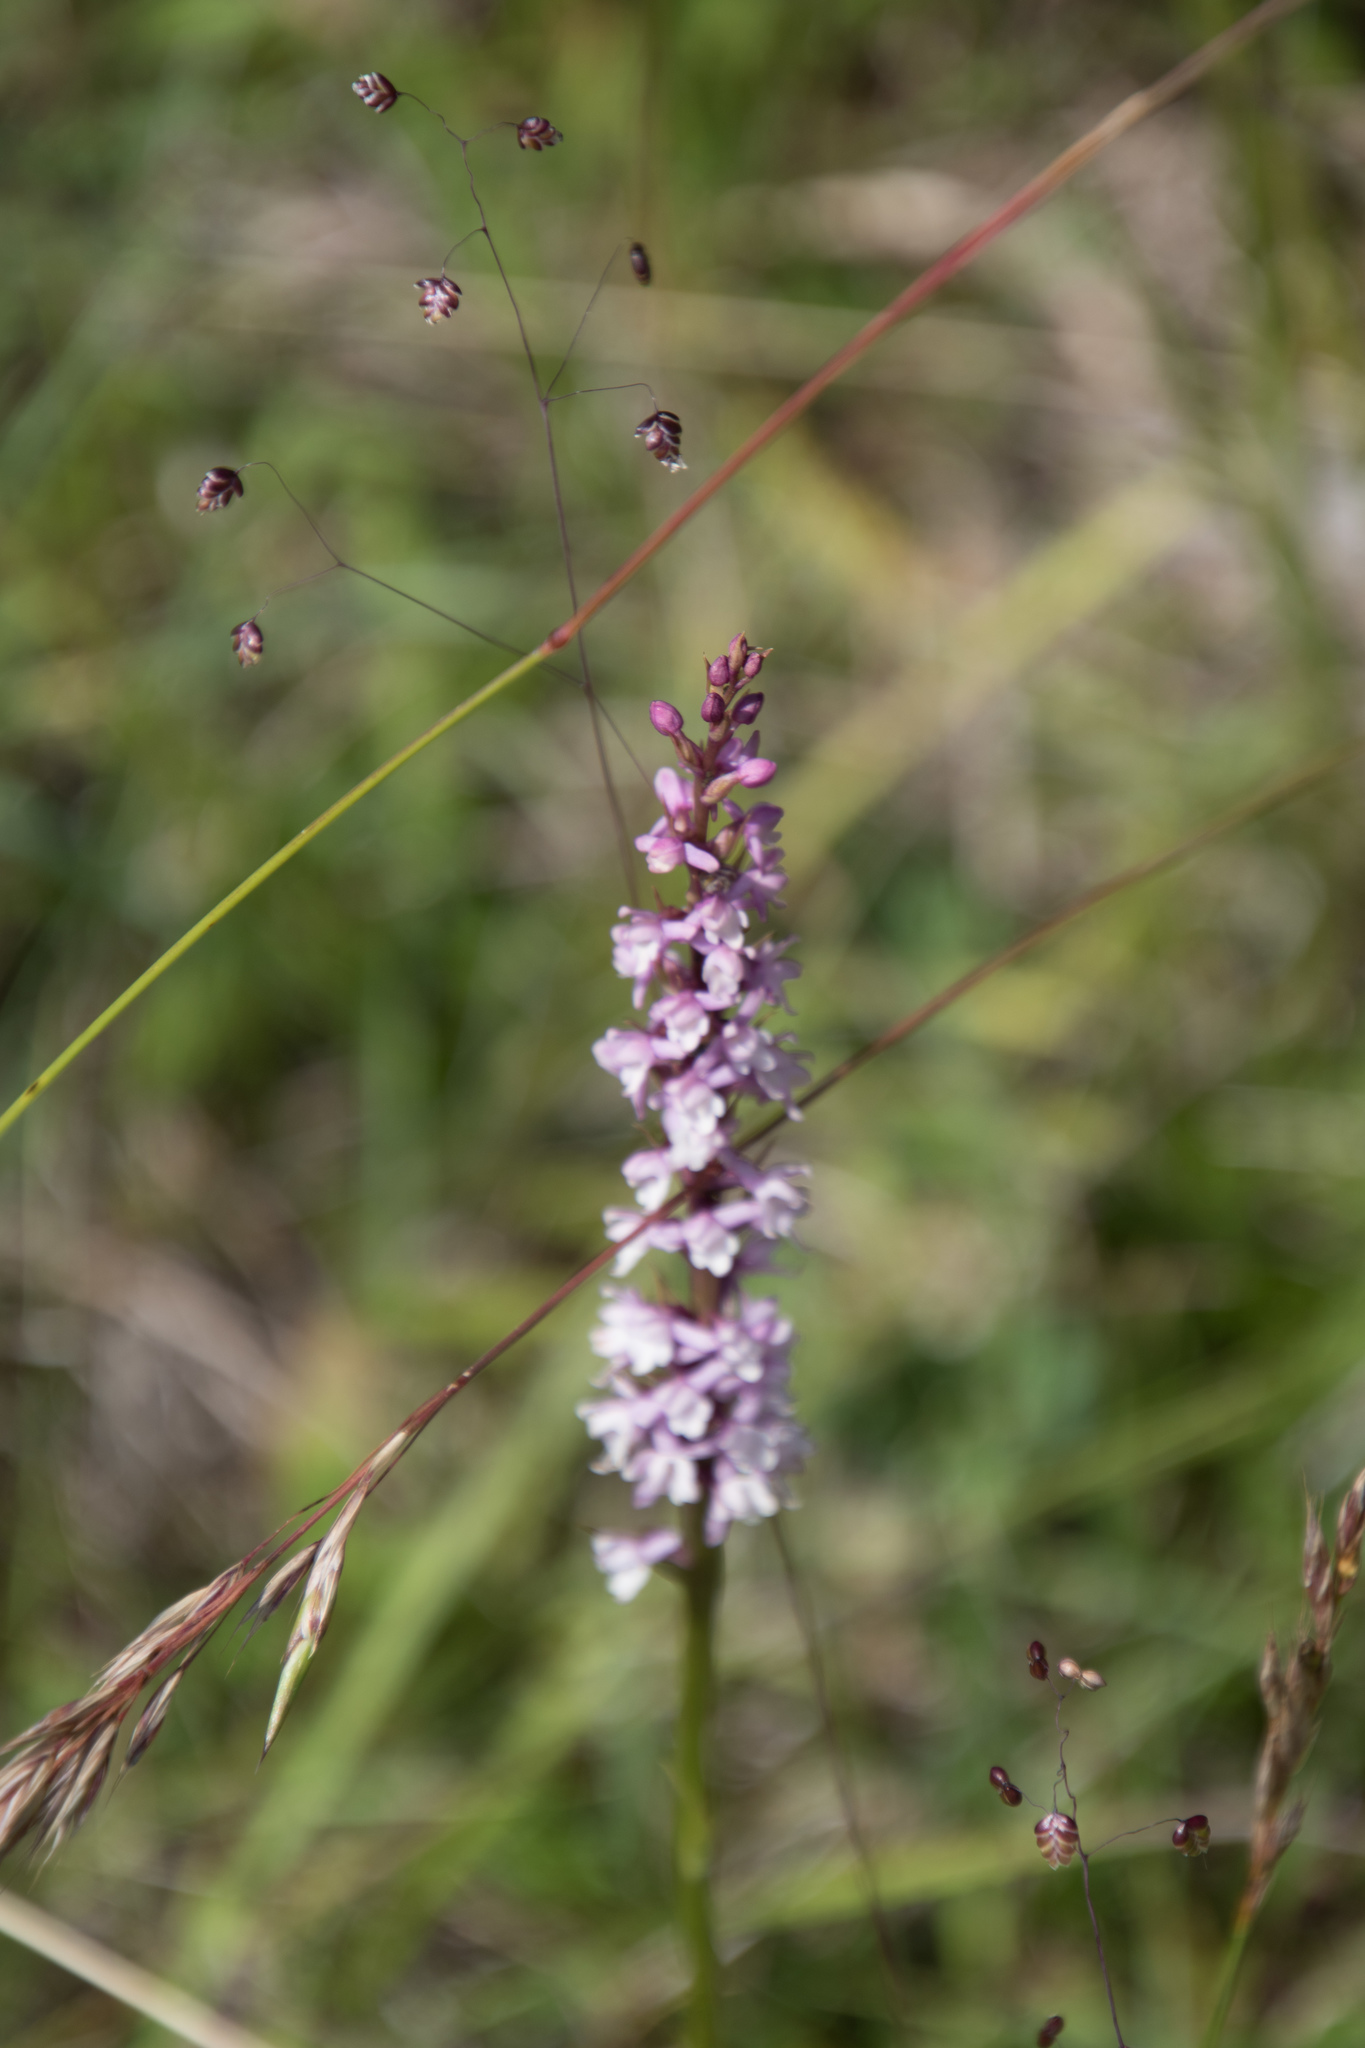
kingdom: Plantae
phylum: Tracheophyta
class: Liliopsida
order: Asparagales
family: Orchidaceae
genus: Gymnadenia
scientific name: Gymnadenia odoratissima
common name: Scented gymnadenia
